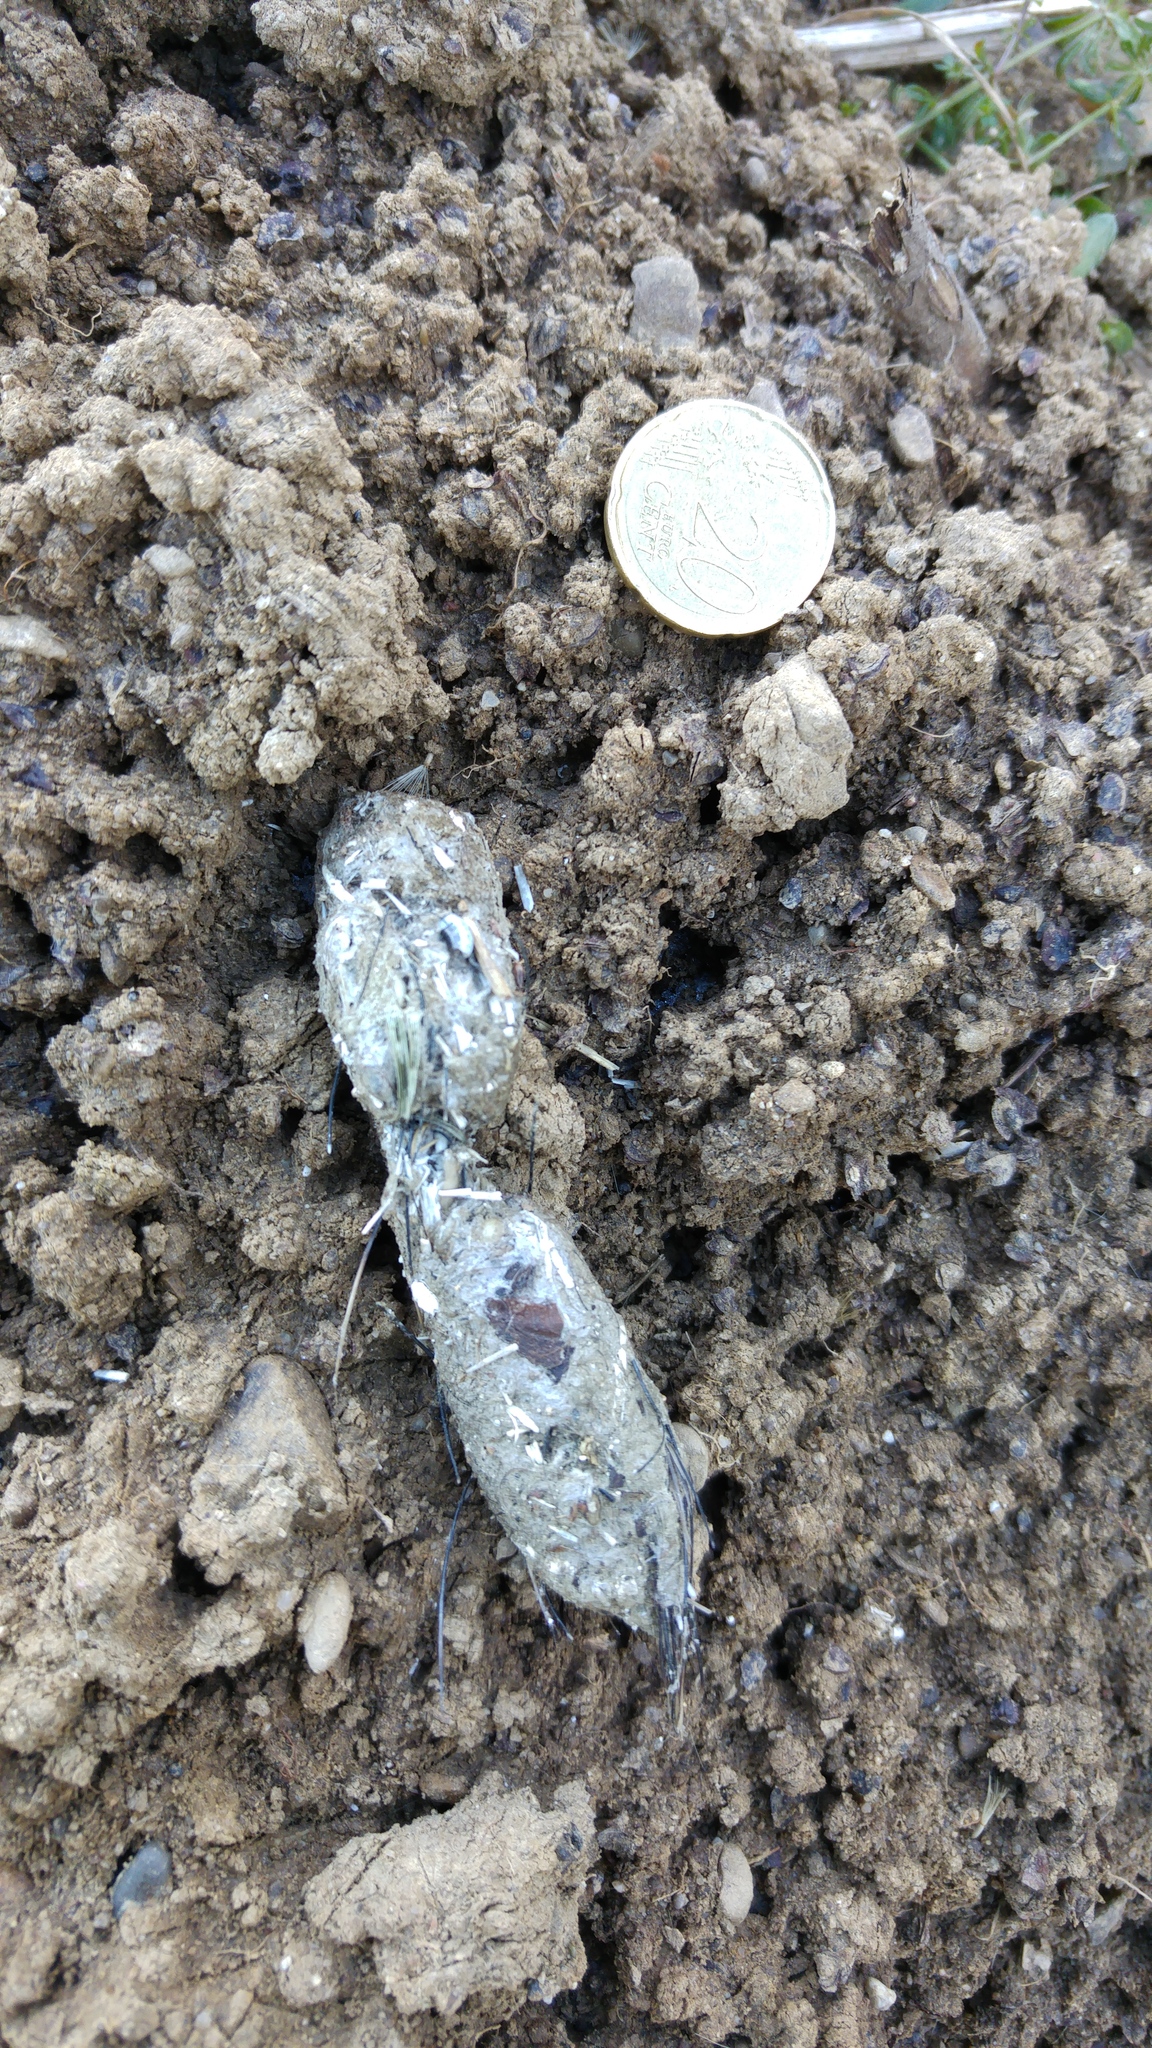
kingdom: Animalia
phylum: Chordata
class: Mammalia
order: Carnivora
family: Canidae
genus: Vulpes
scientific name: Vulpes vulpes
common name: Red fox
